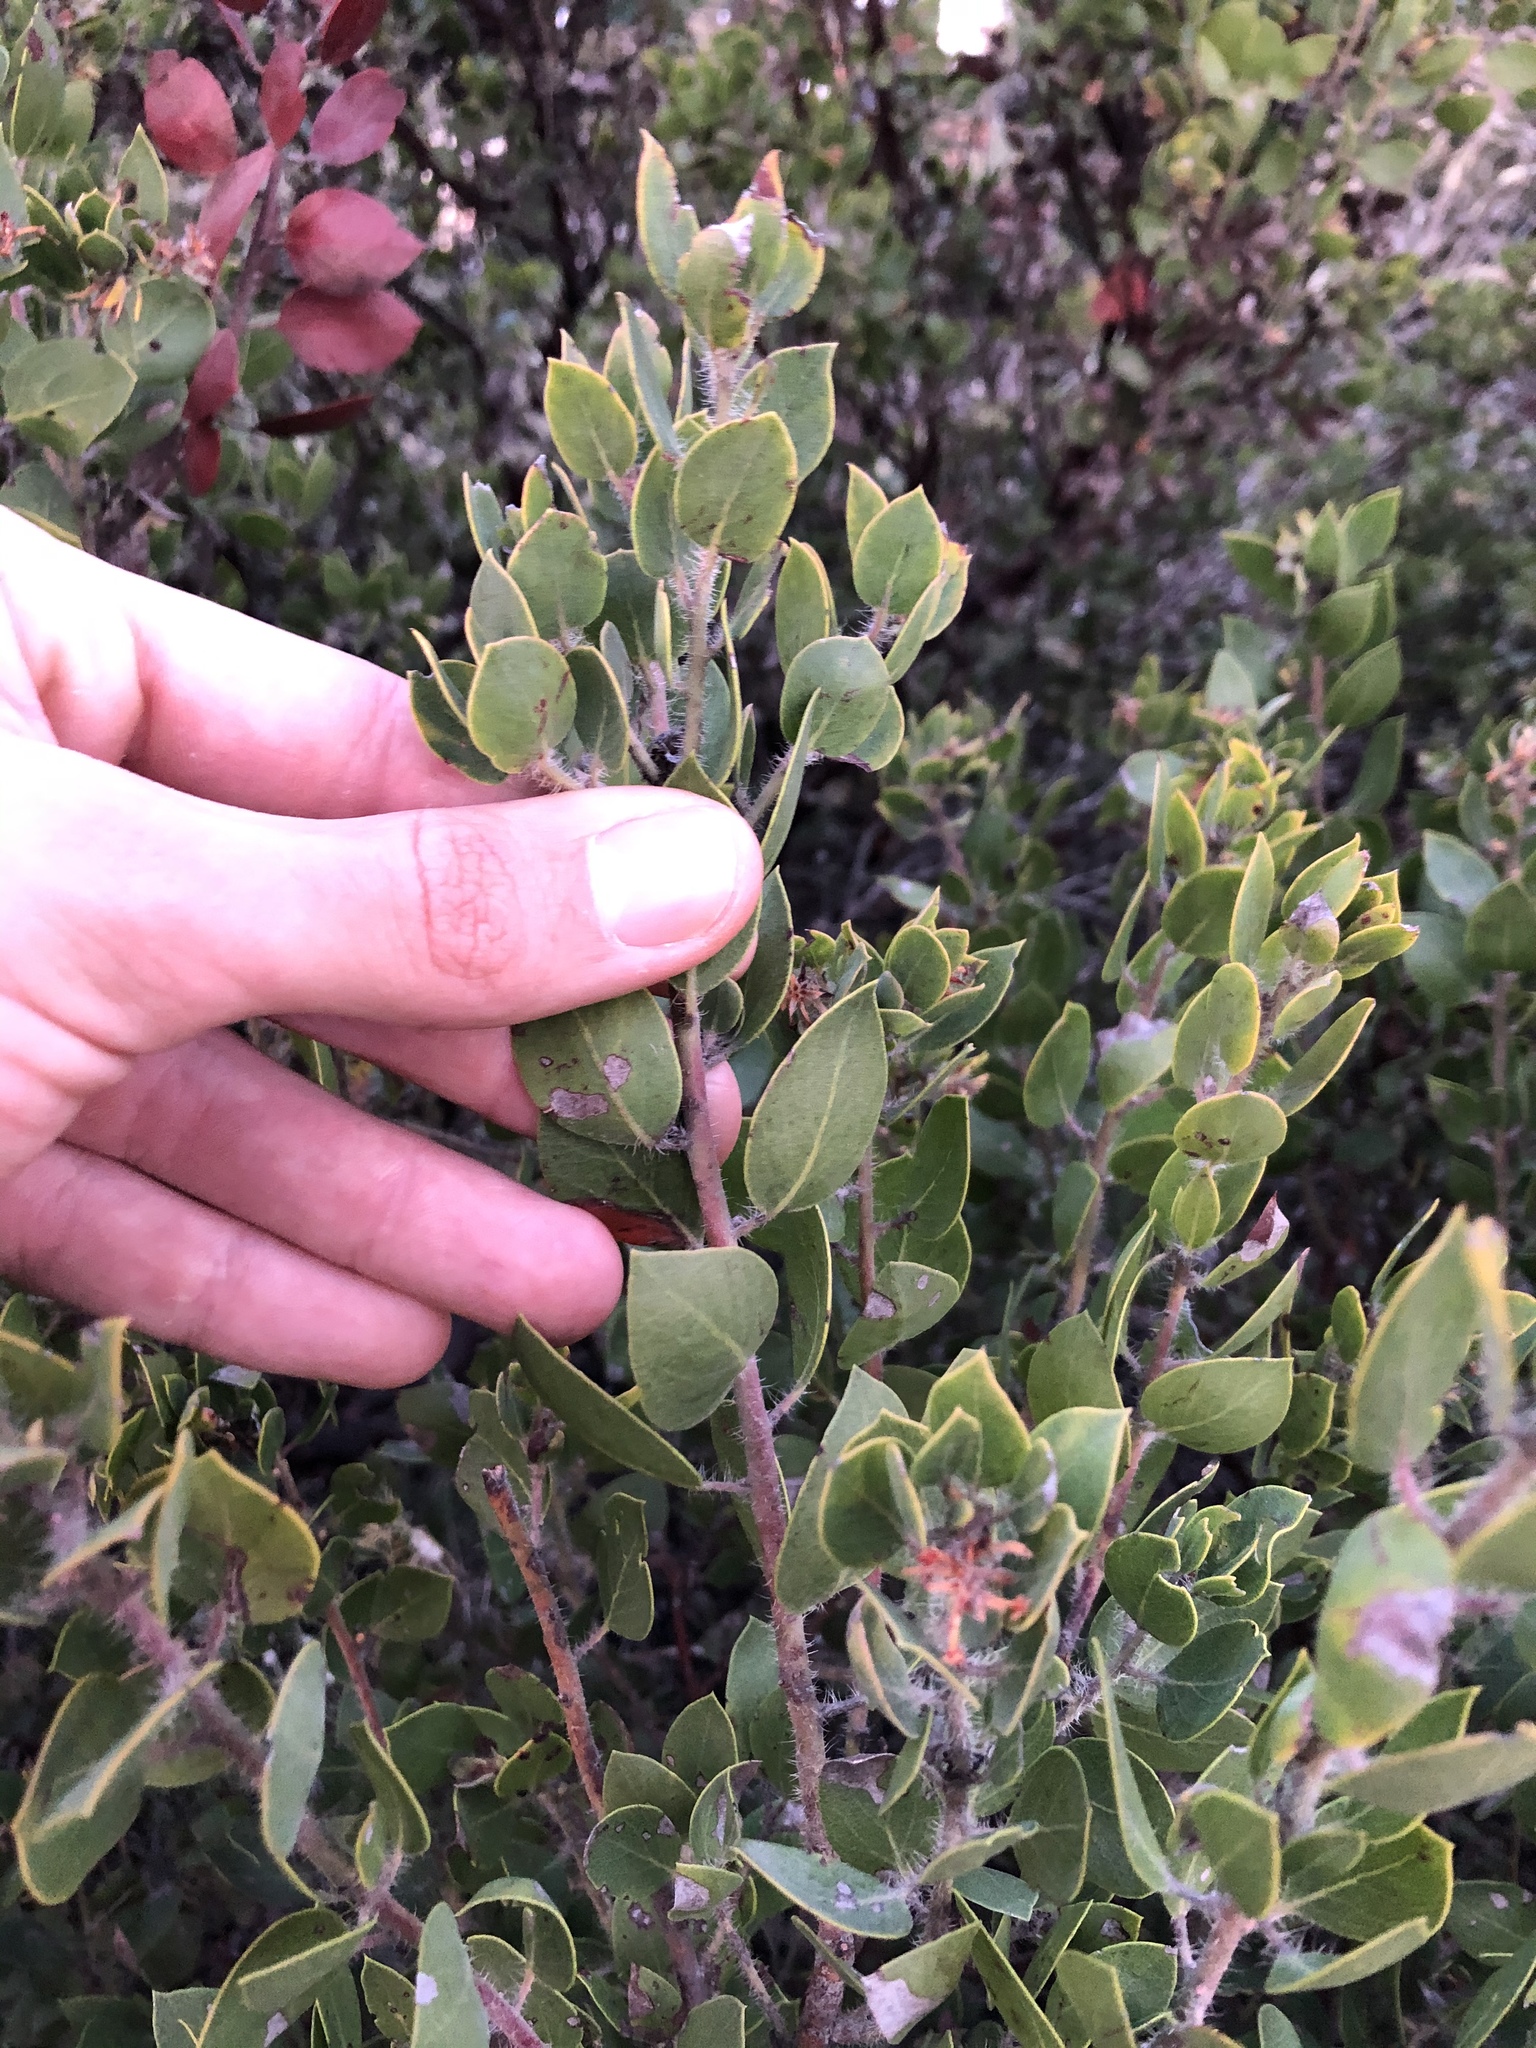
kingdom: Plantae
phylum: Tracheophyta
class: Magnoliopsida
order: Ericales
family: Ericaceae
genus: Arctostaphylos
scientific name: Arctostaphylos pilosula
